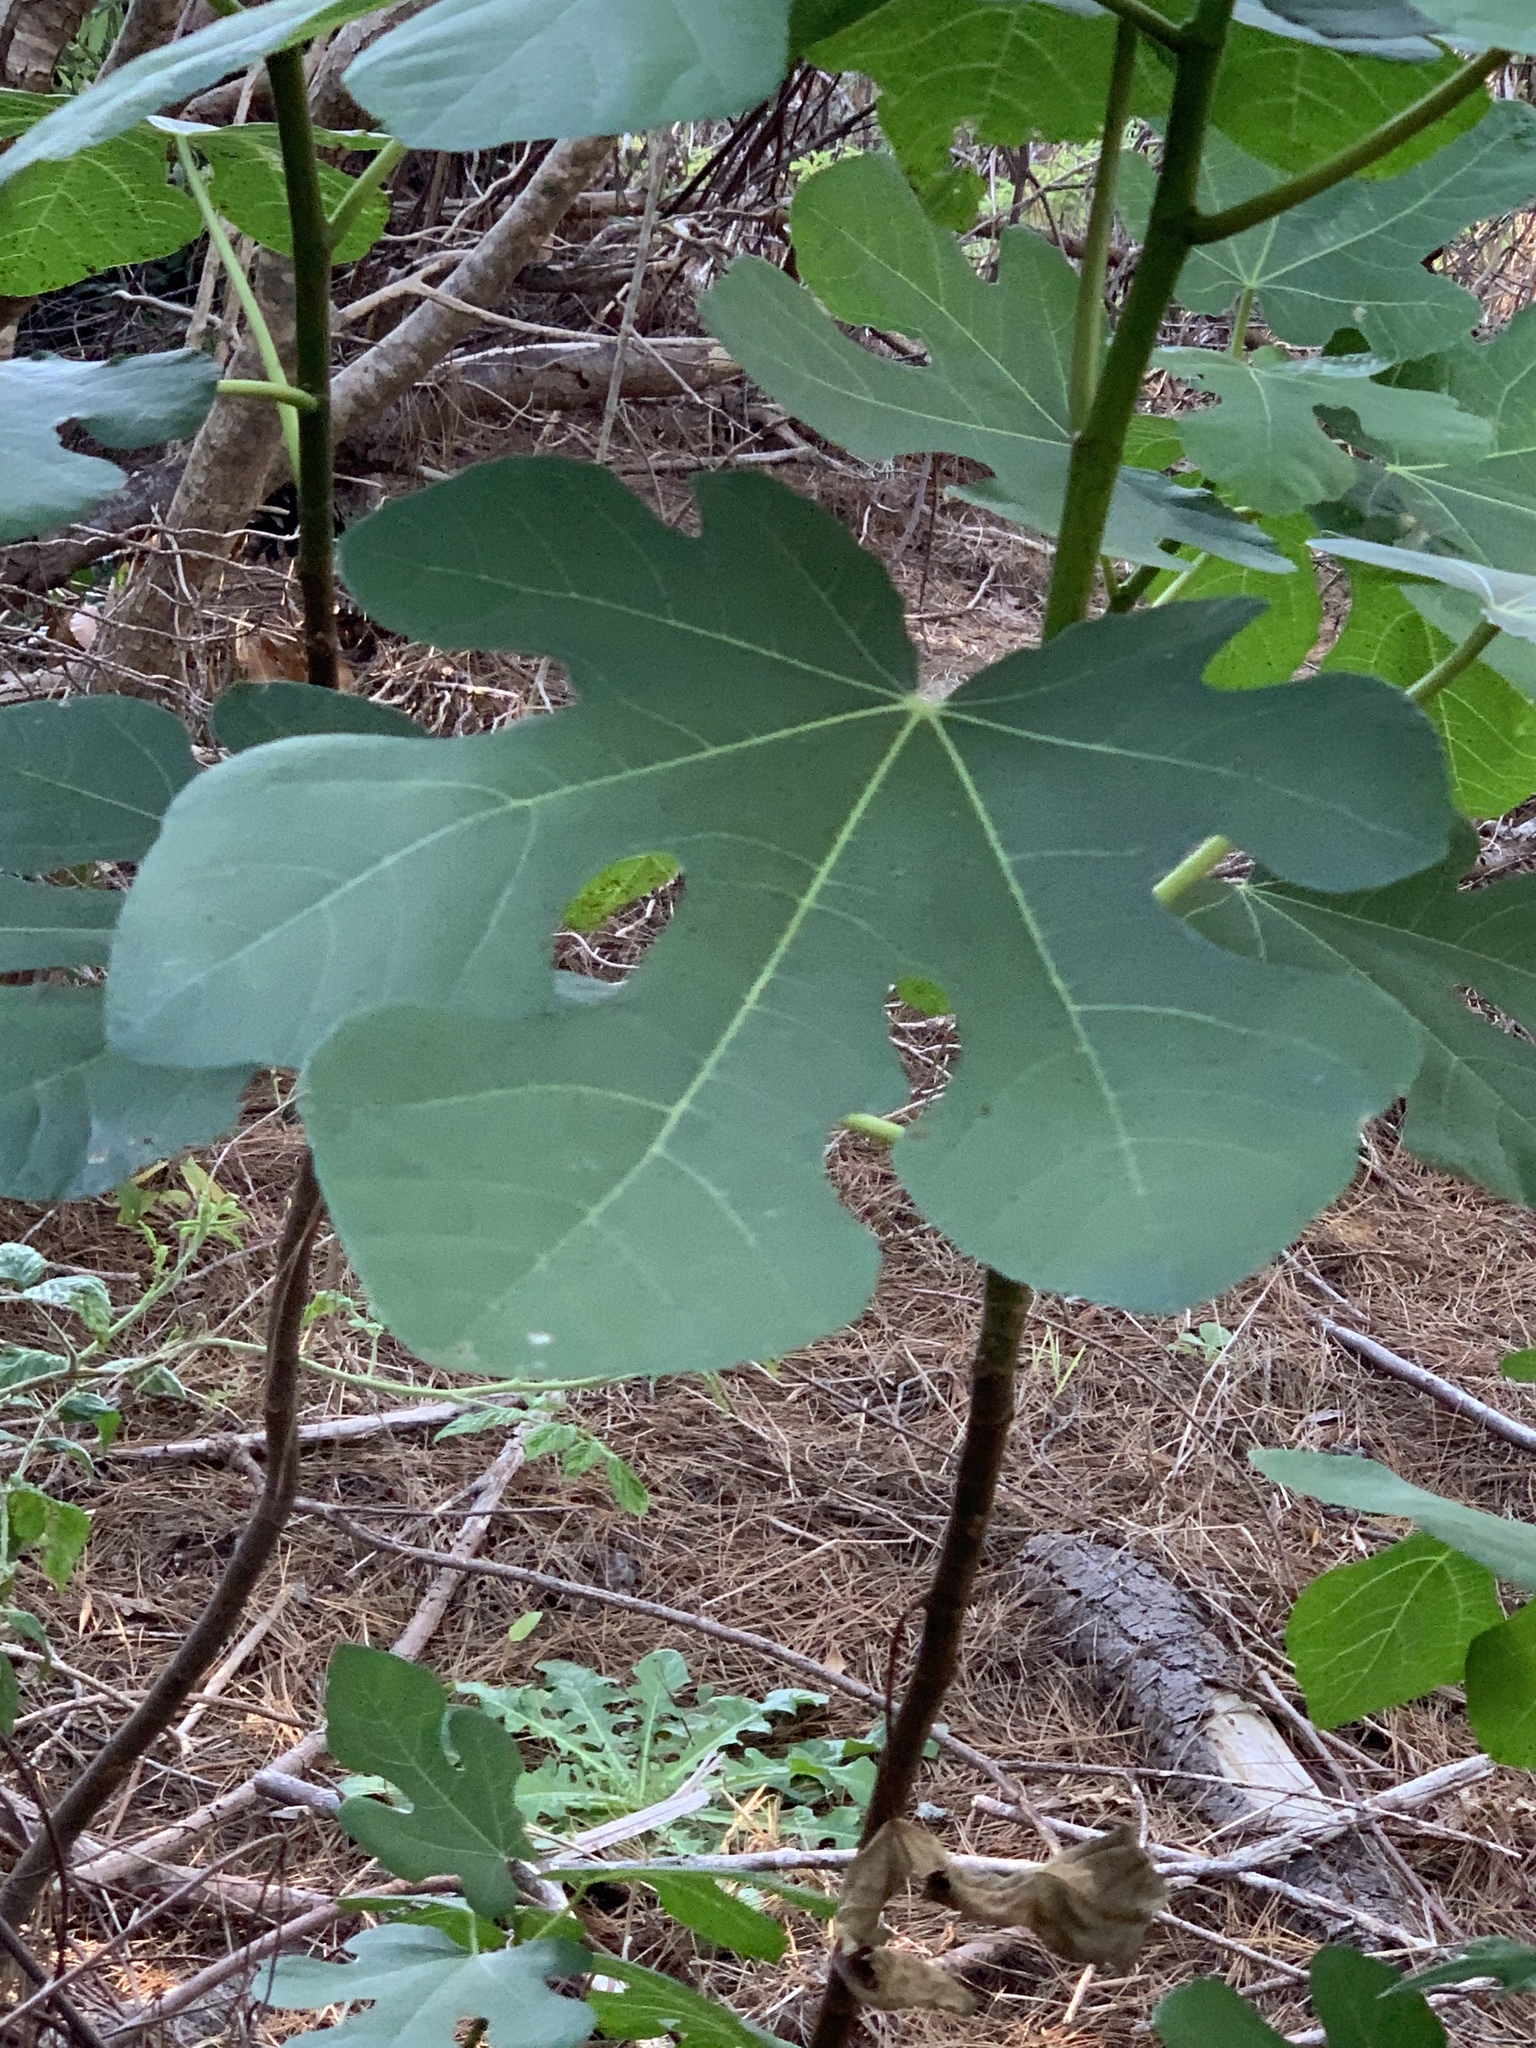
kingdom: Plantae
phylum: Tracheophyta
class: Magnoliopsida
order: Rosales
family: Moraceae
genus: Ficus
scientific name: Ficus carica
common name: Fig
